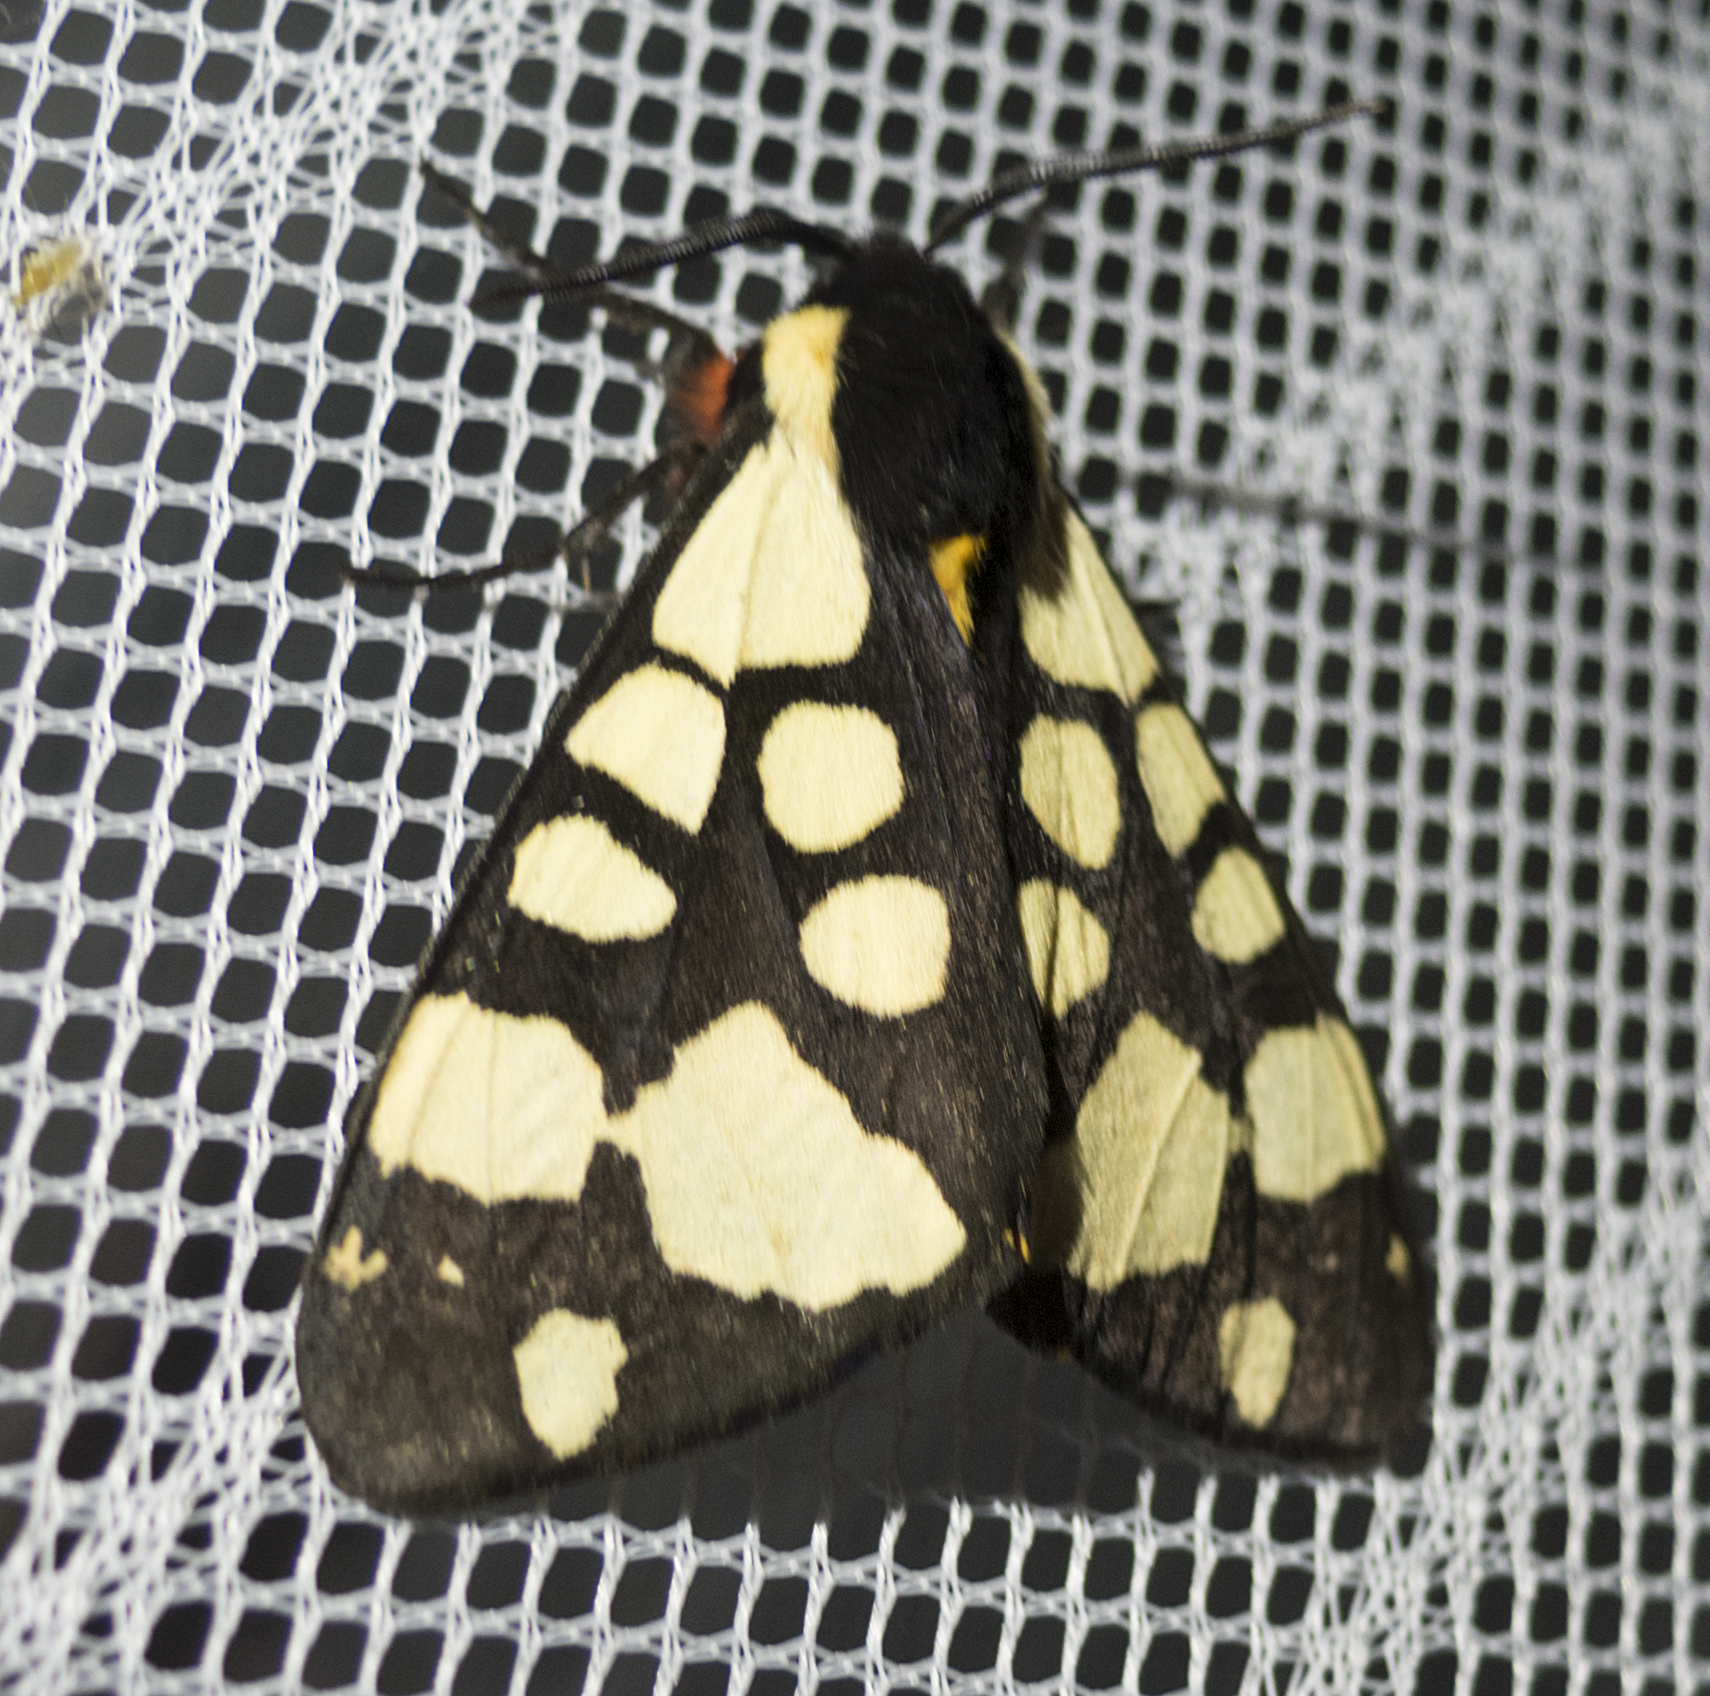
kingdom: Animalia
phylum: Arthropoda
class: Insecta
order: Lepidoptera
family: Erebidae
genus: Epicallia
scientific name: Epicallia villica
